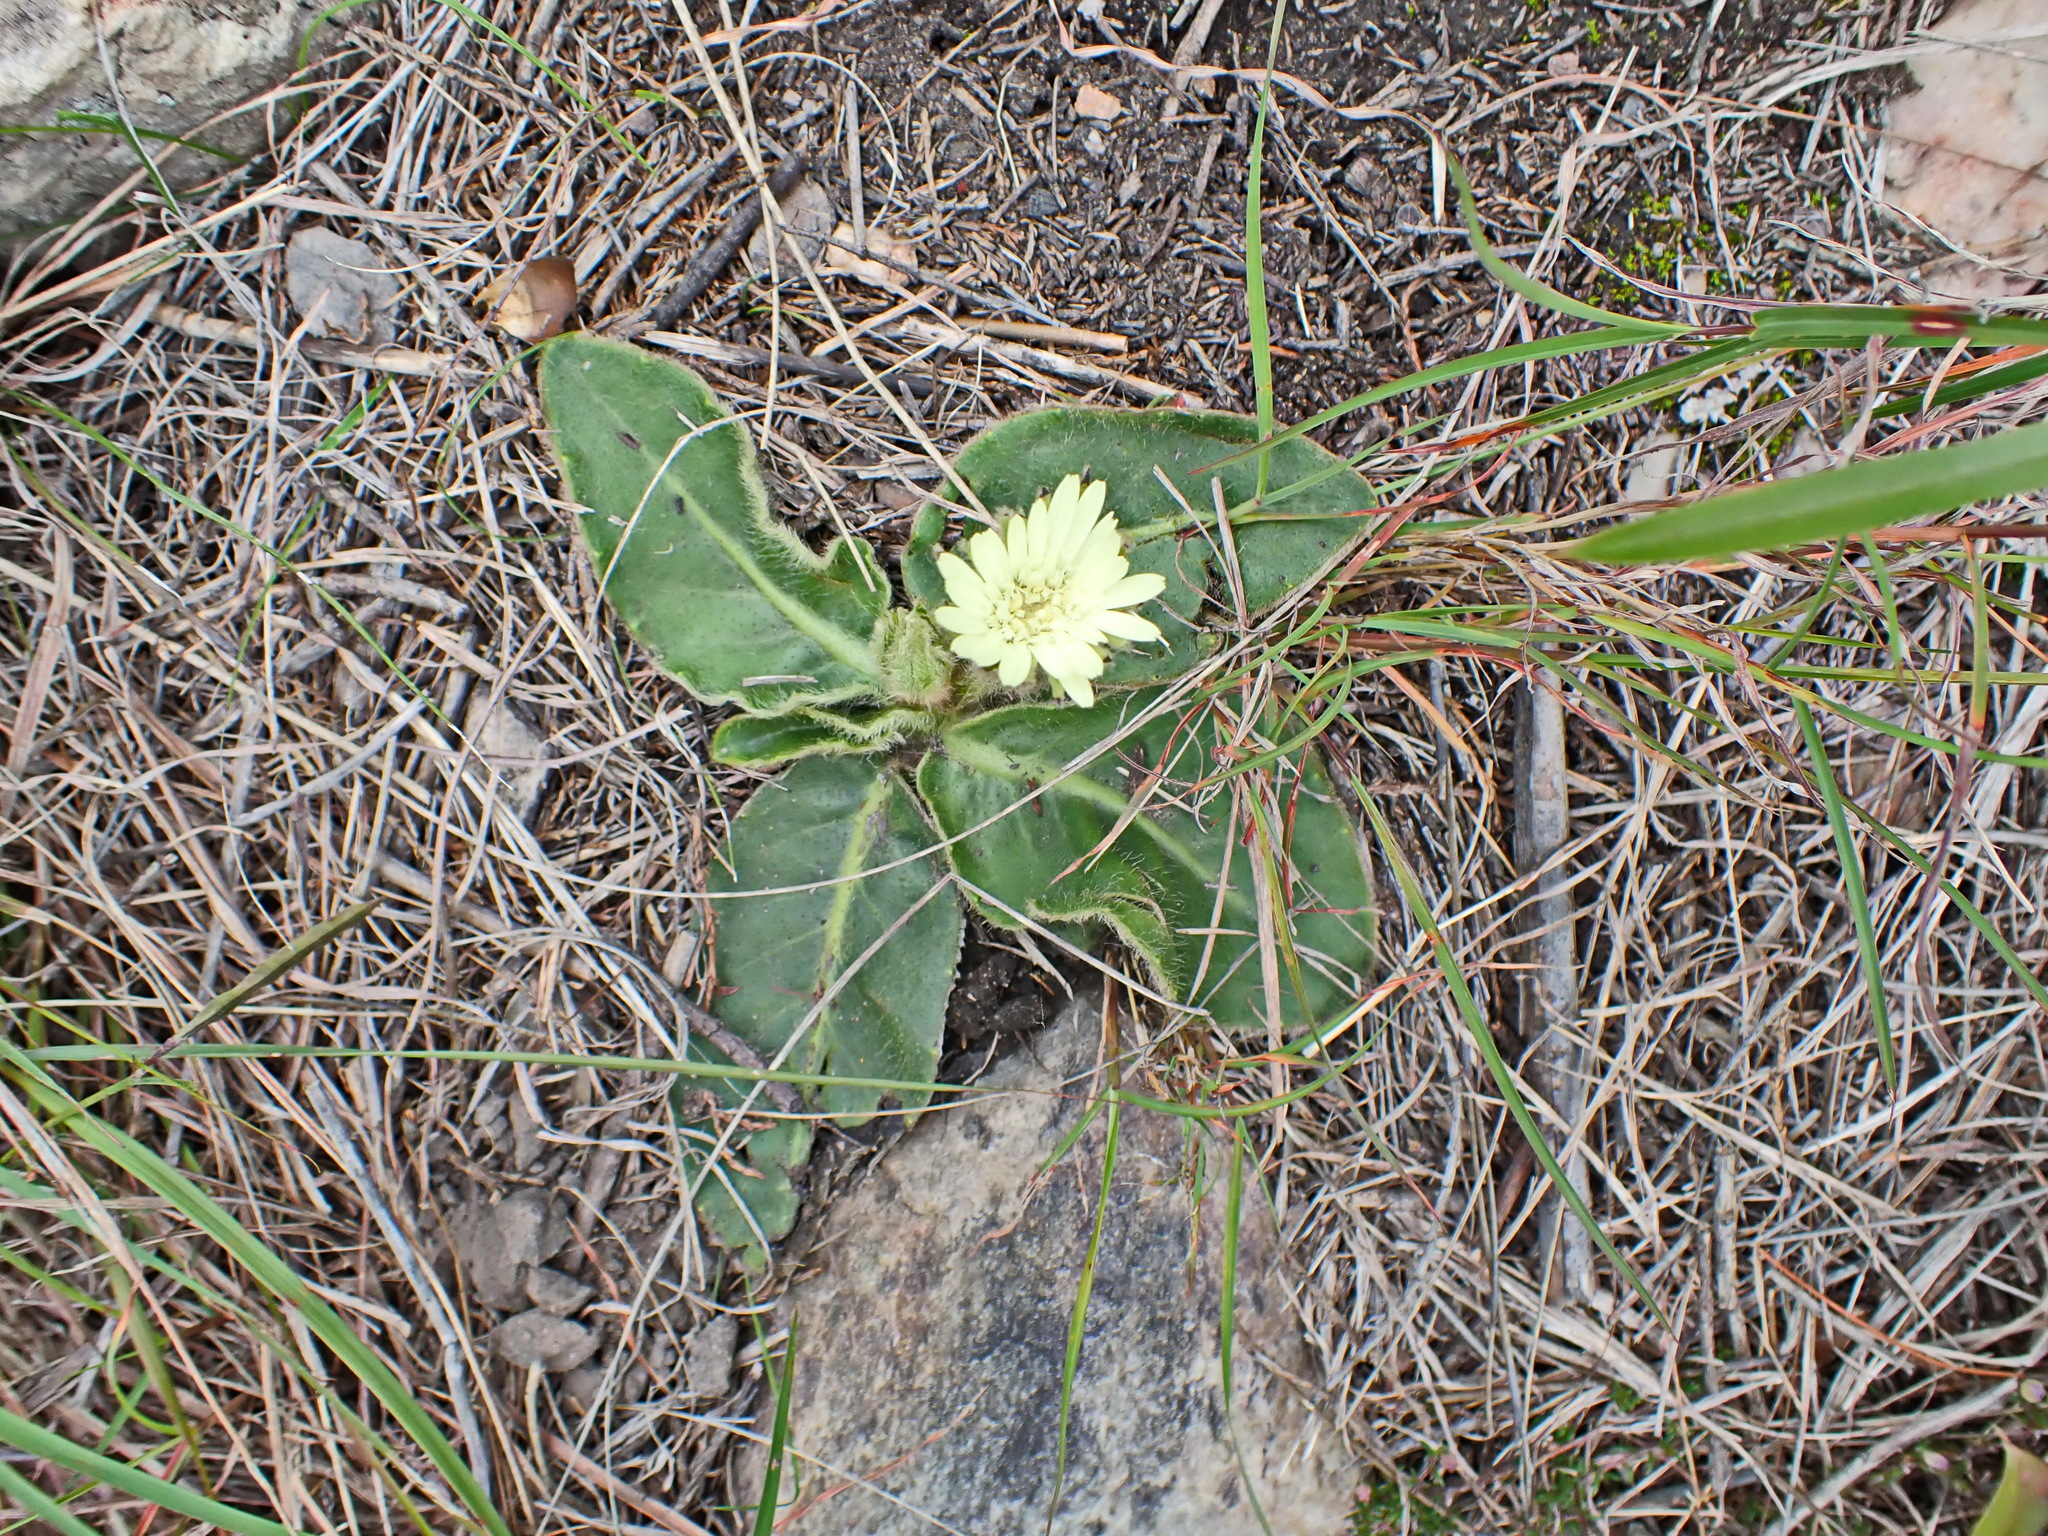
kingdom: Plantae
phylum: Tracheophyta
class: Magnoliopsida
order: Asterales
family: Asteraceae
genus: Piloselloides
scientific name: Piloselloides hirsuta
